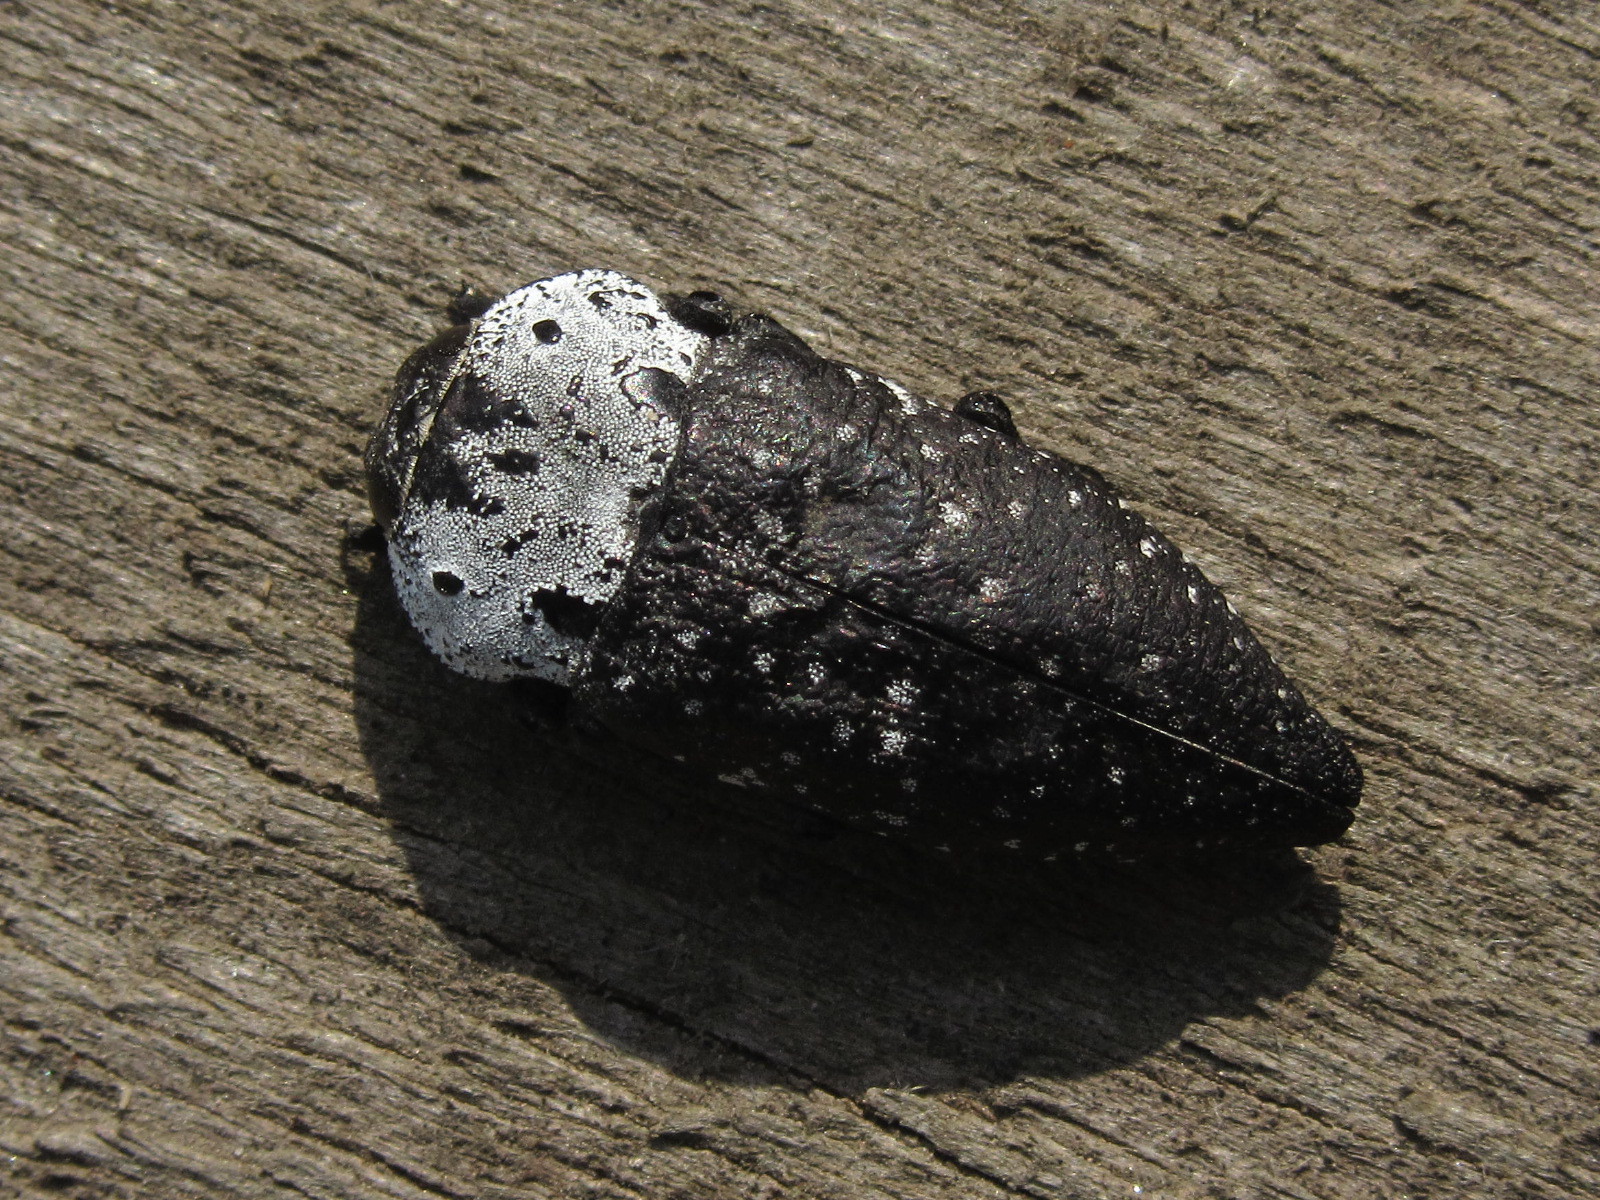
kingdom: Animalia
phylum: Arthropoda
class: Insecta
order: Coleoptera
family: Buprestidae
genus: Capnodis
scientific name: Capnodis tenebrionis
